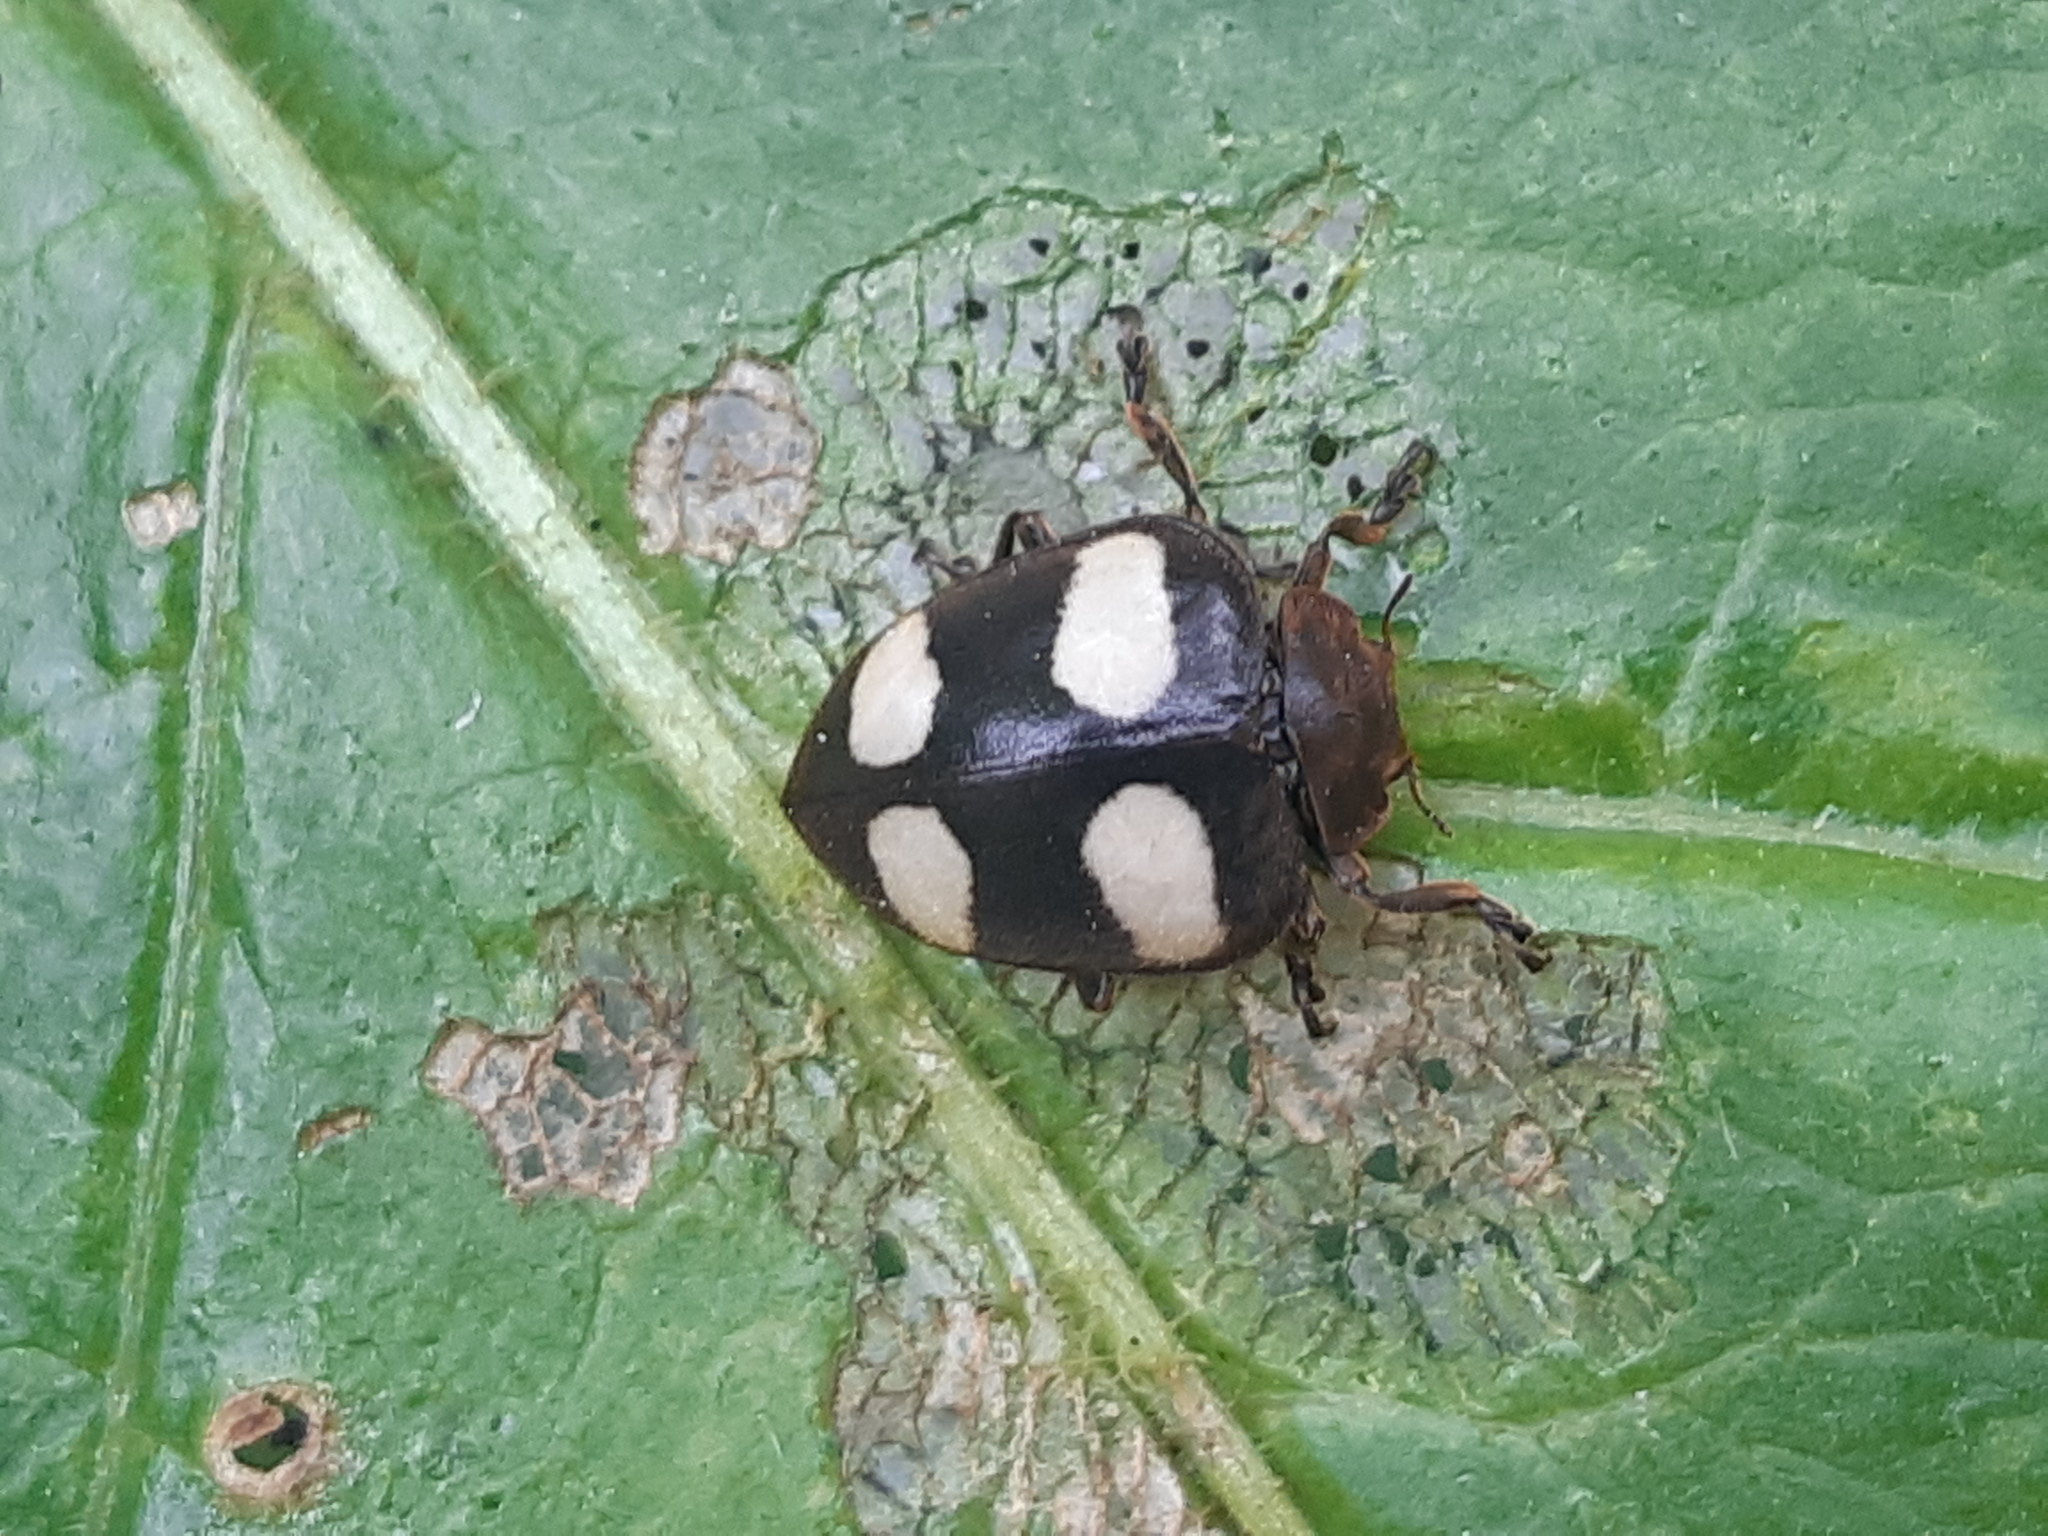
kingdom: Animalia
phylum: Arthropoda
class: Insecta
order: Coleoptera
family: Coccinellidae
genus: Epilachna
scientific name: Epilachna
